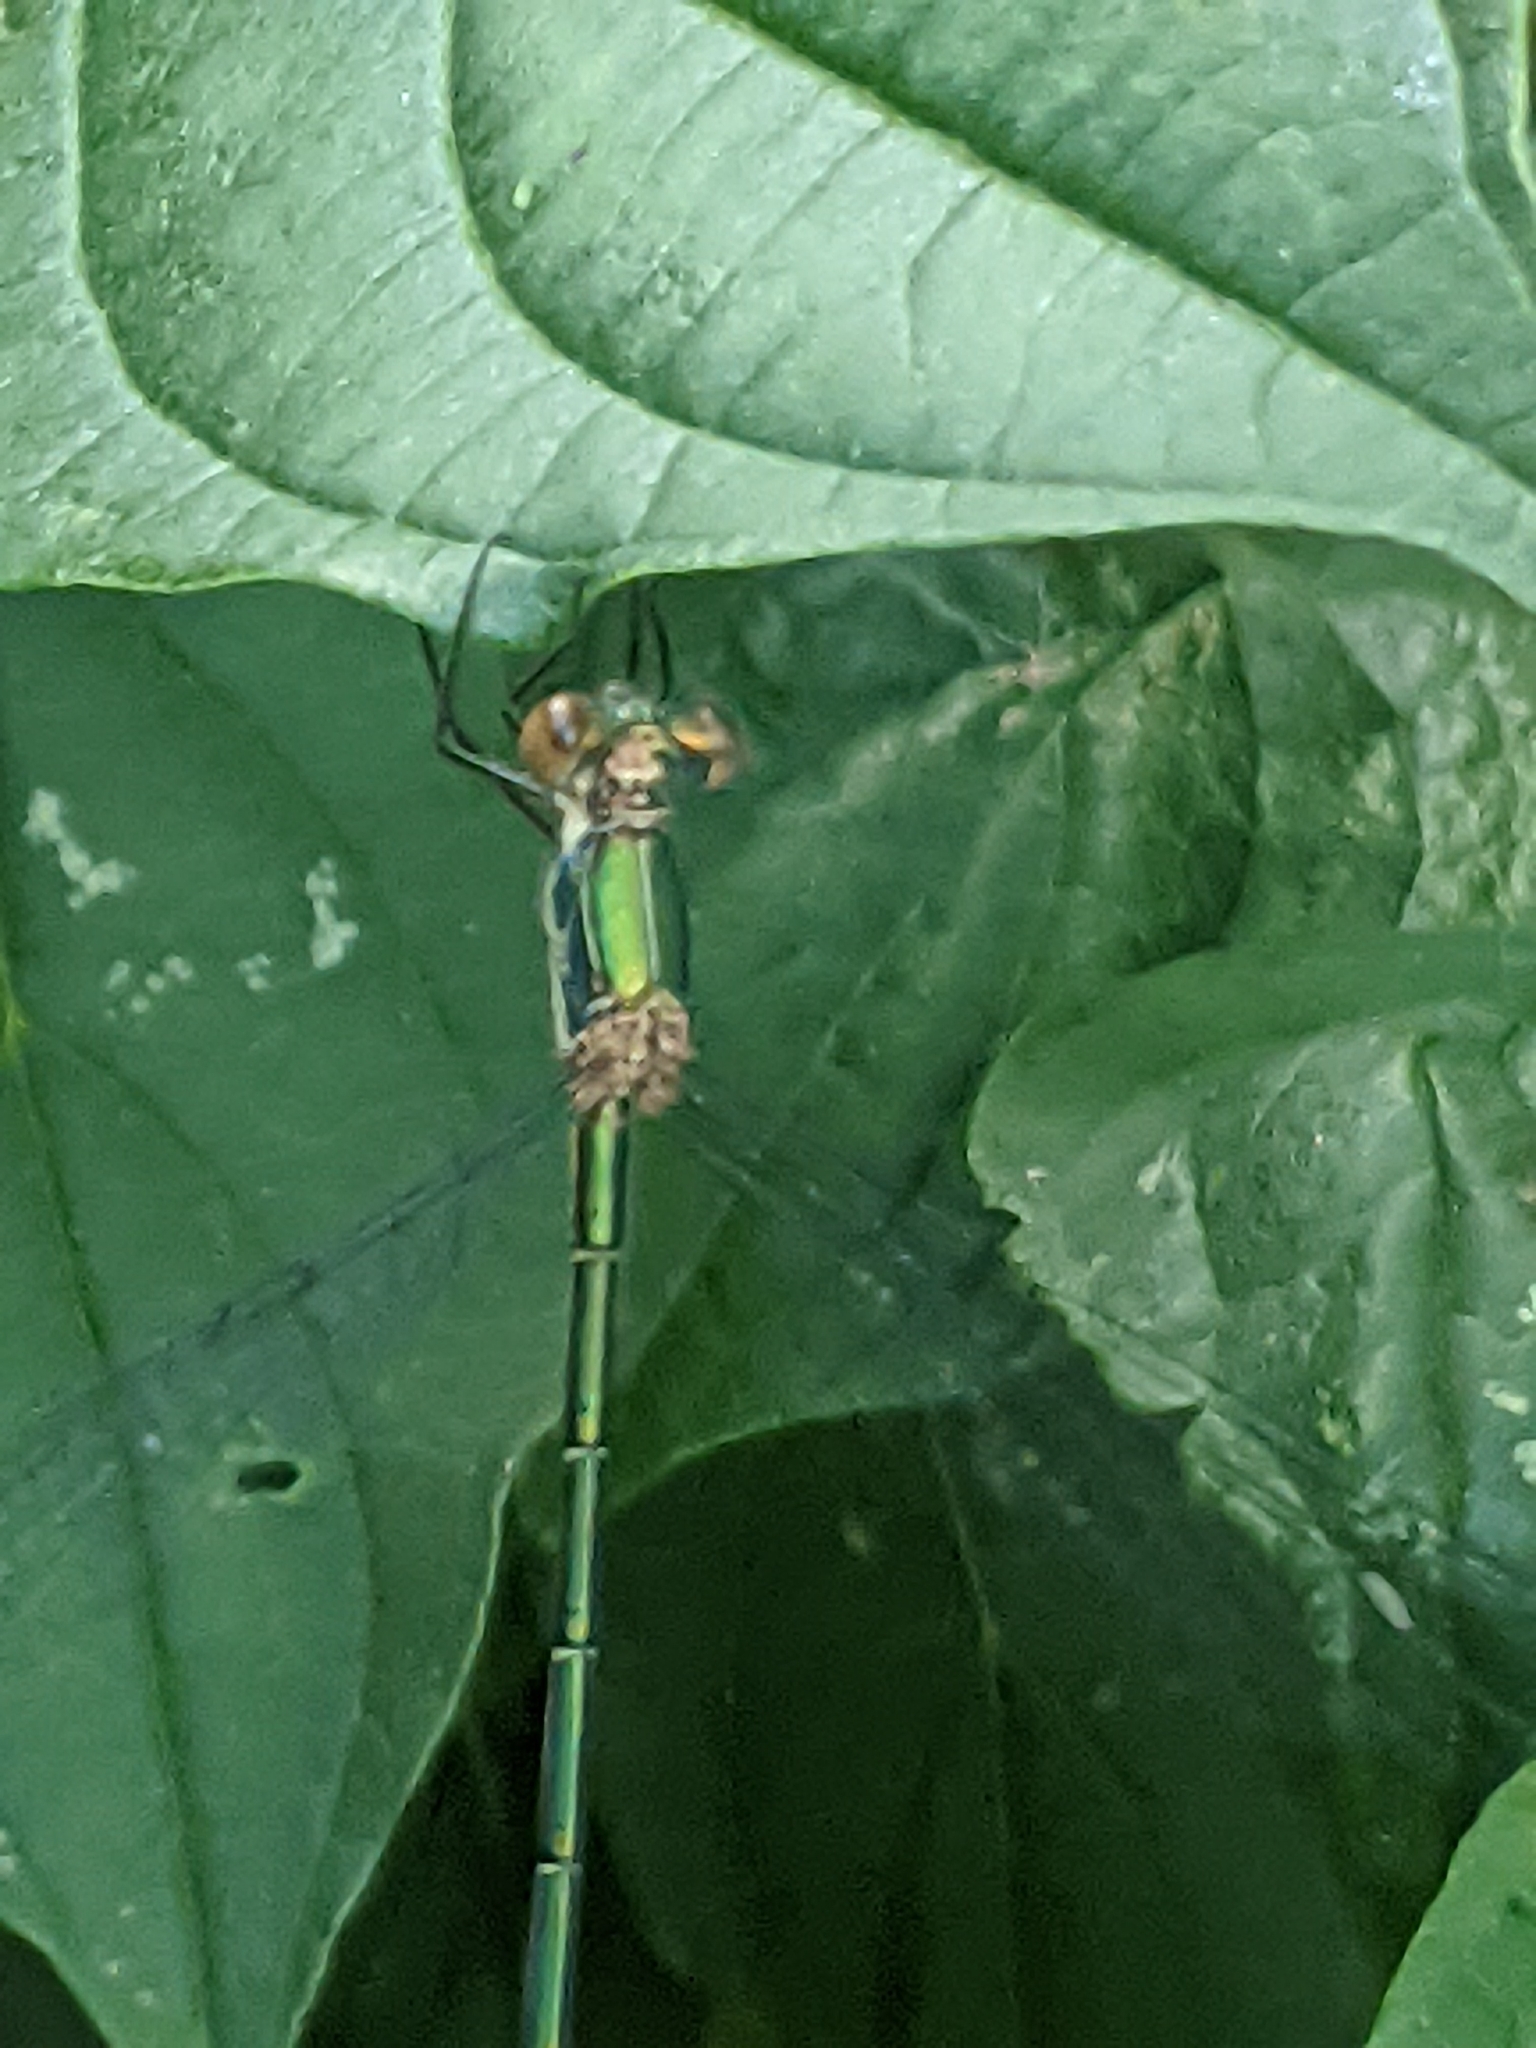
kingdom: Animalia
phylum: Arthropoda
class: Insecta
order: Odonata
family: Lestidae
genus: Chalcolestes
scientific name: Chalcolestes viridis
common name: Green emerald damselfly
